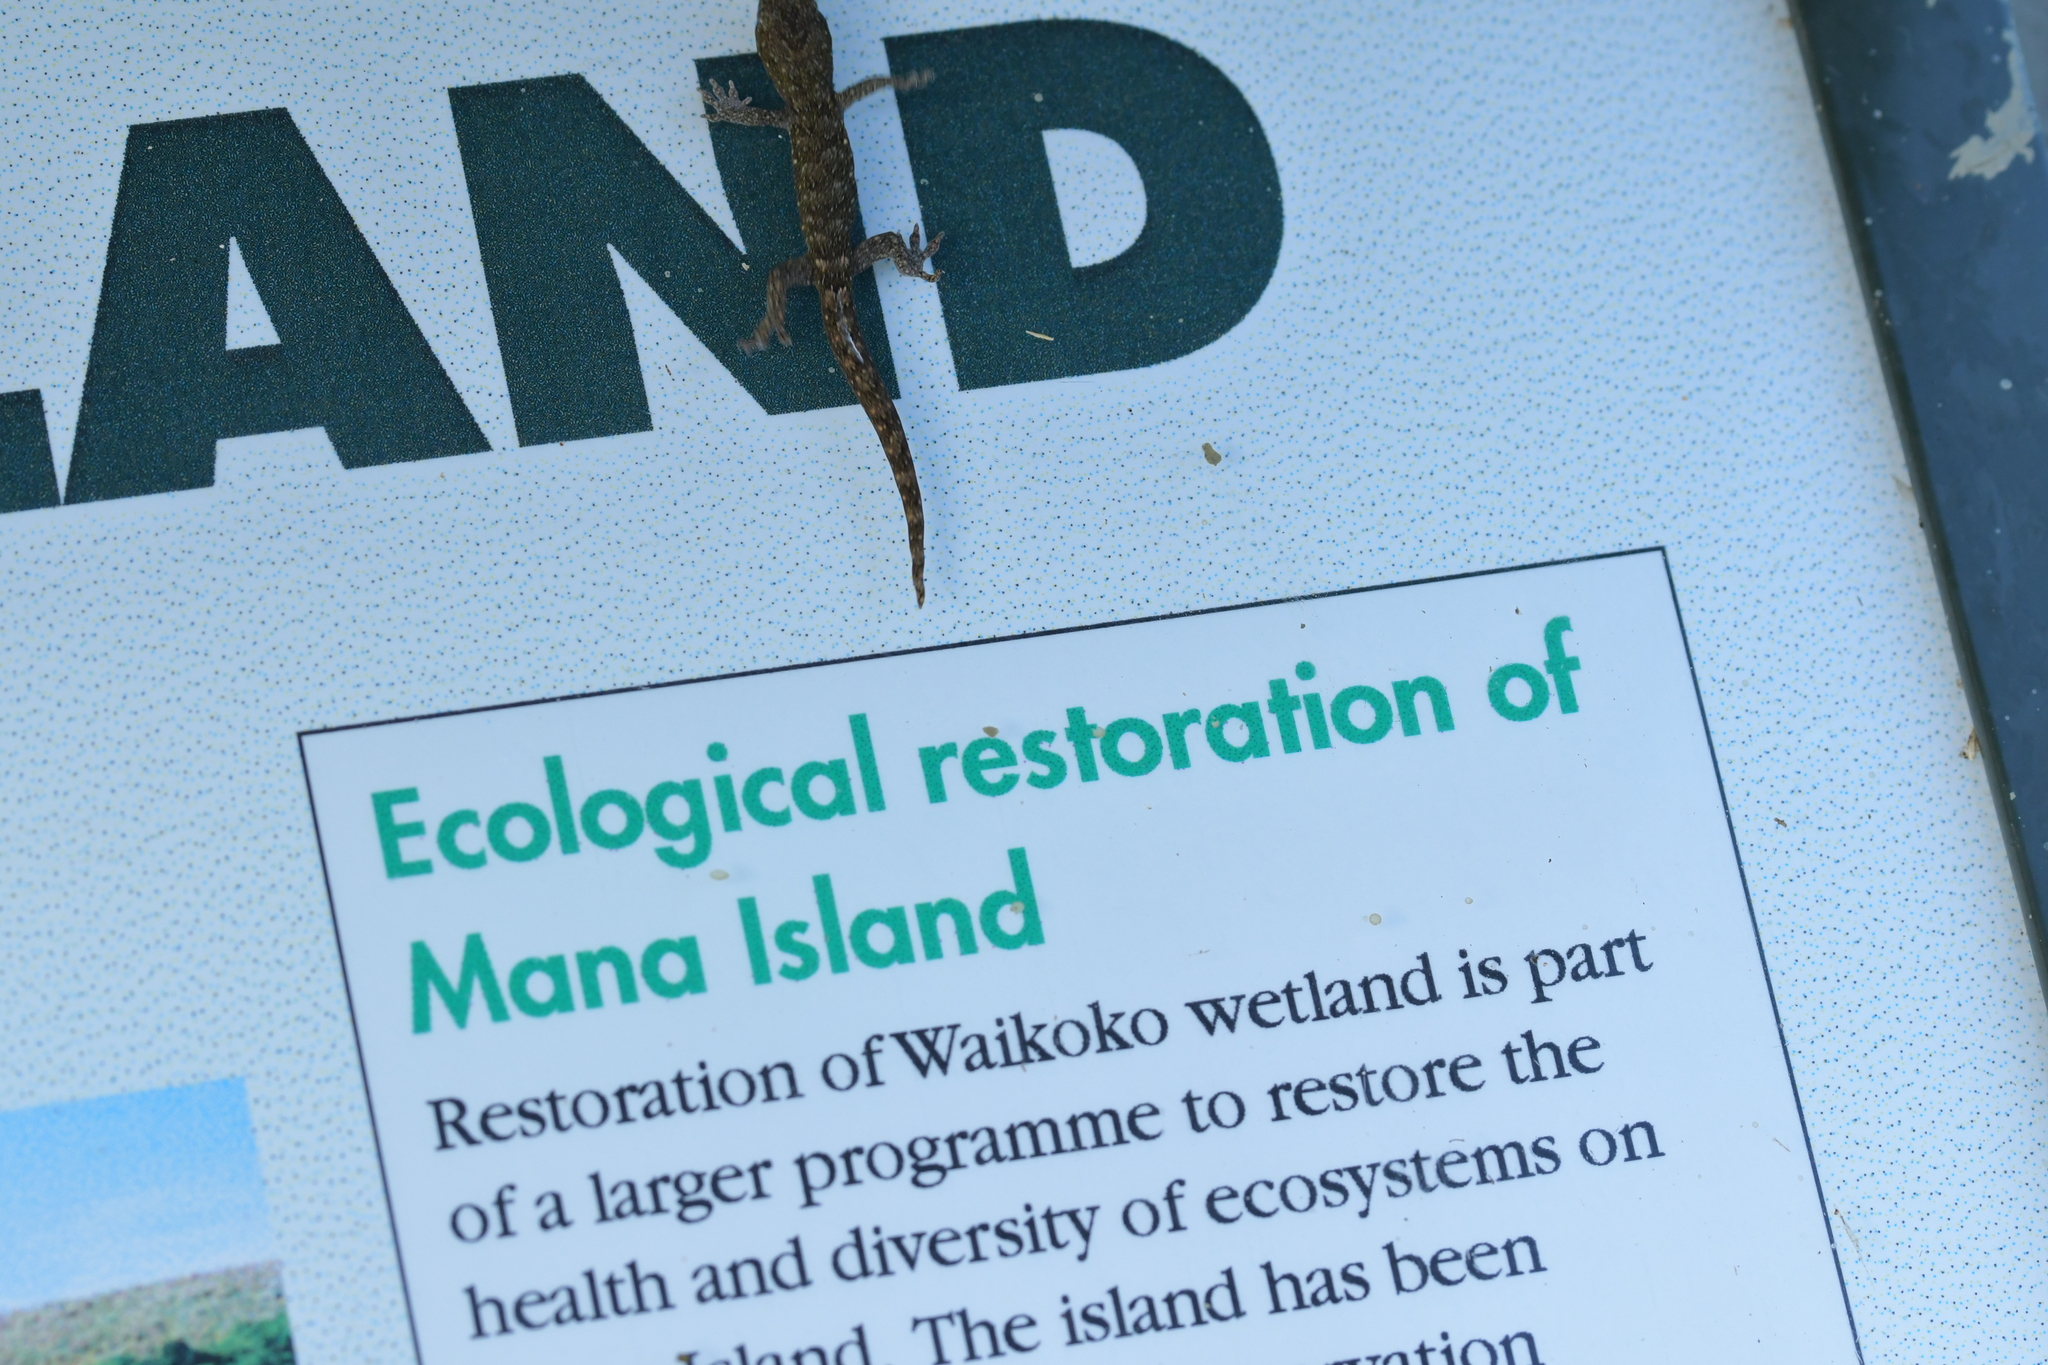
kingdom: Animalia
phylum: Chordata
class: Squamata
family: Diplodactylidae
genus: Woodworthia
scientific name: Woodworthia maculata
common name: Raukawa gecko
